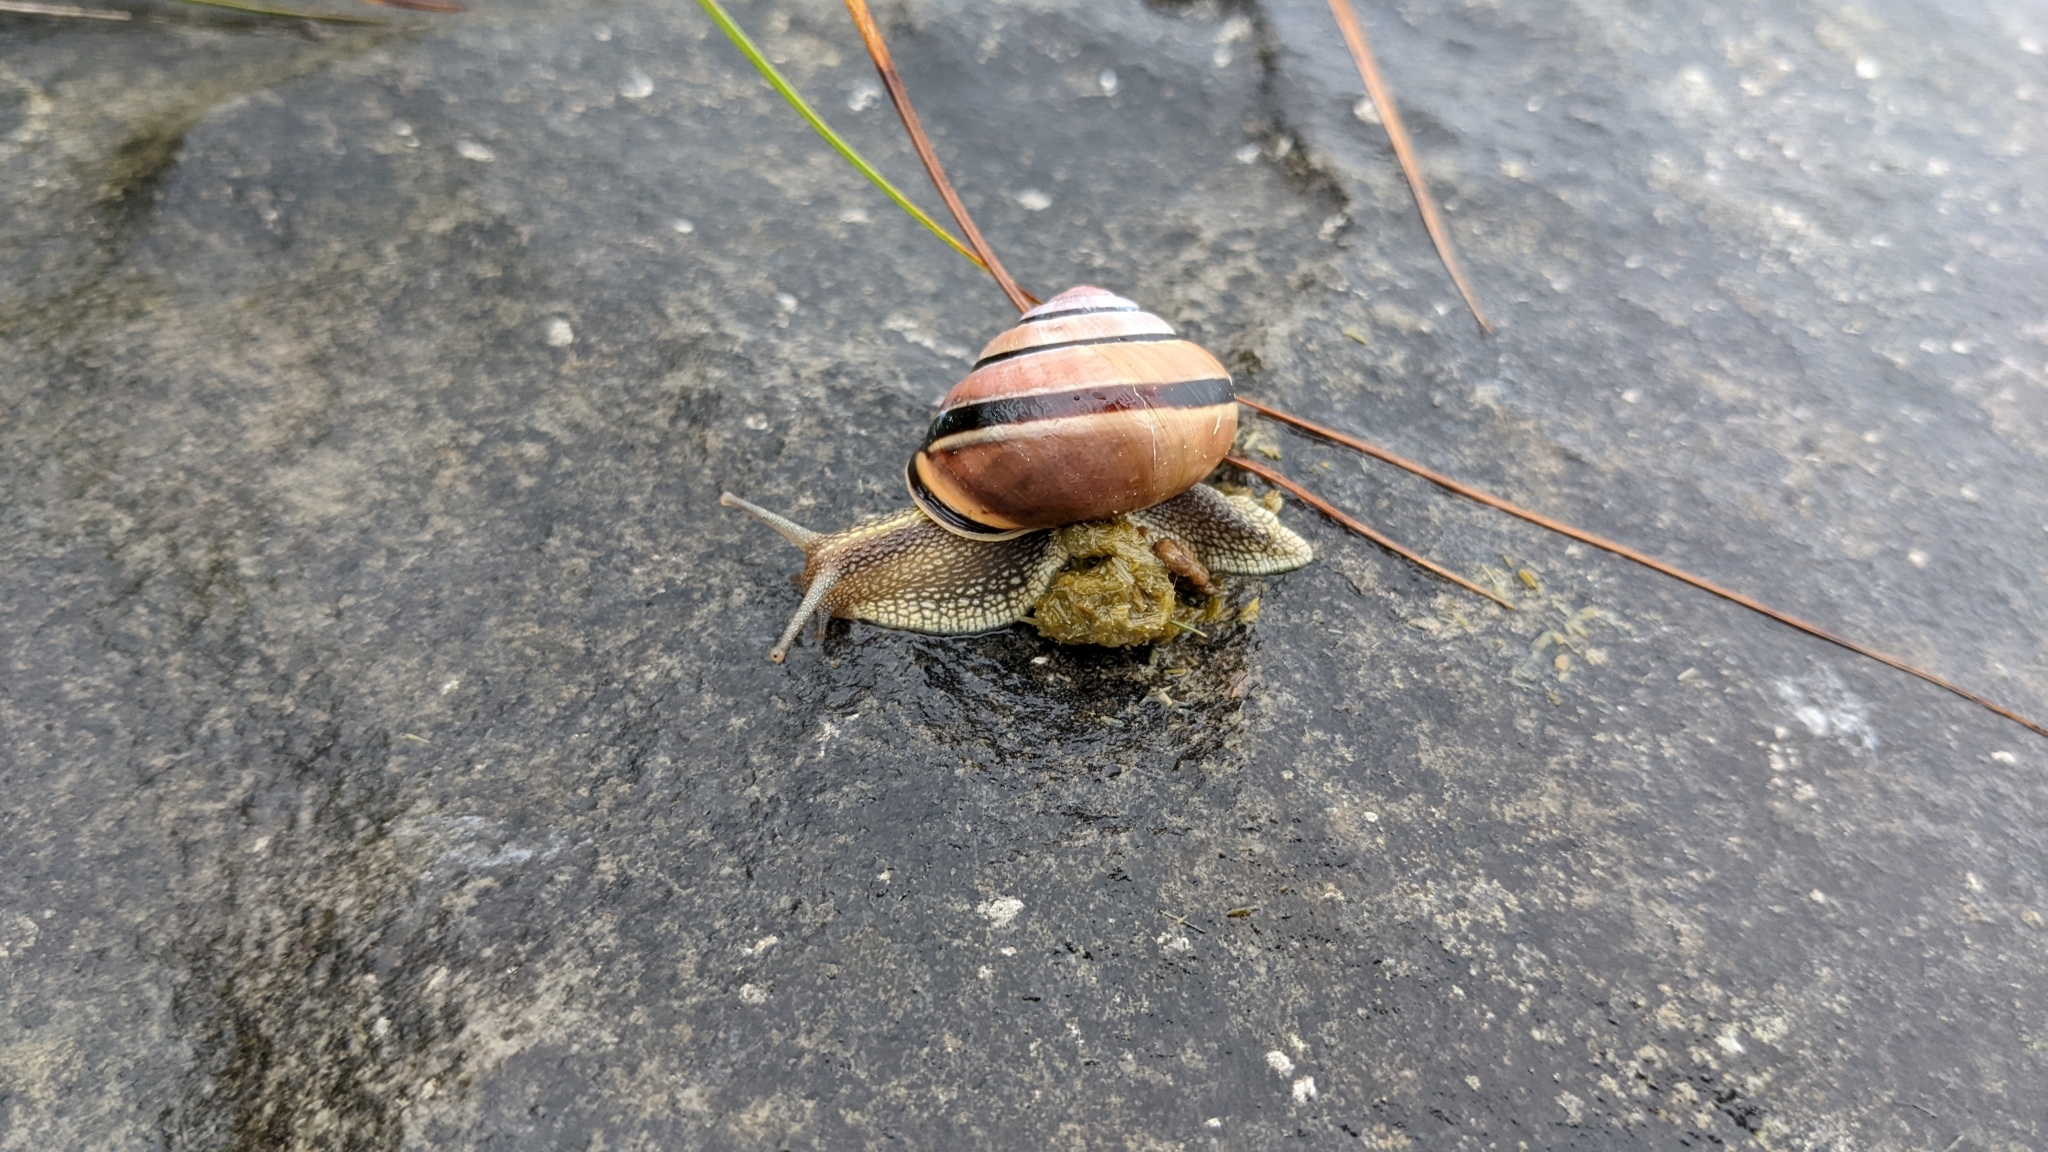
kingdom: Animalia
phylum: Mollusca
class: Gastropoda
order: Stylommatophora
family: Helicidae
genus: Cepaea
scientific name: Cepaea nemoralis
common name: Grovesnail
